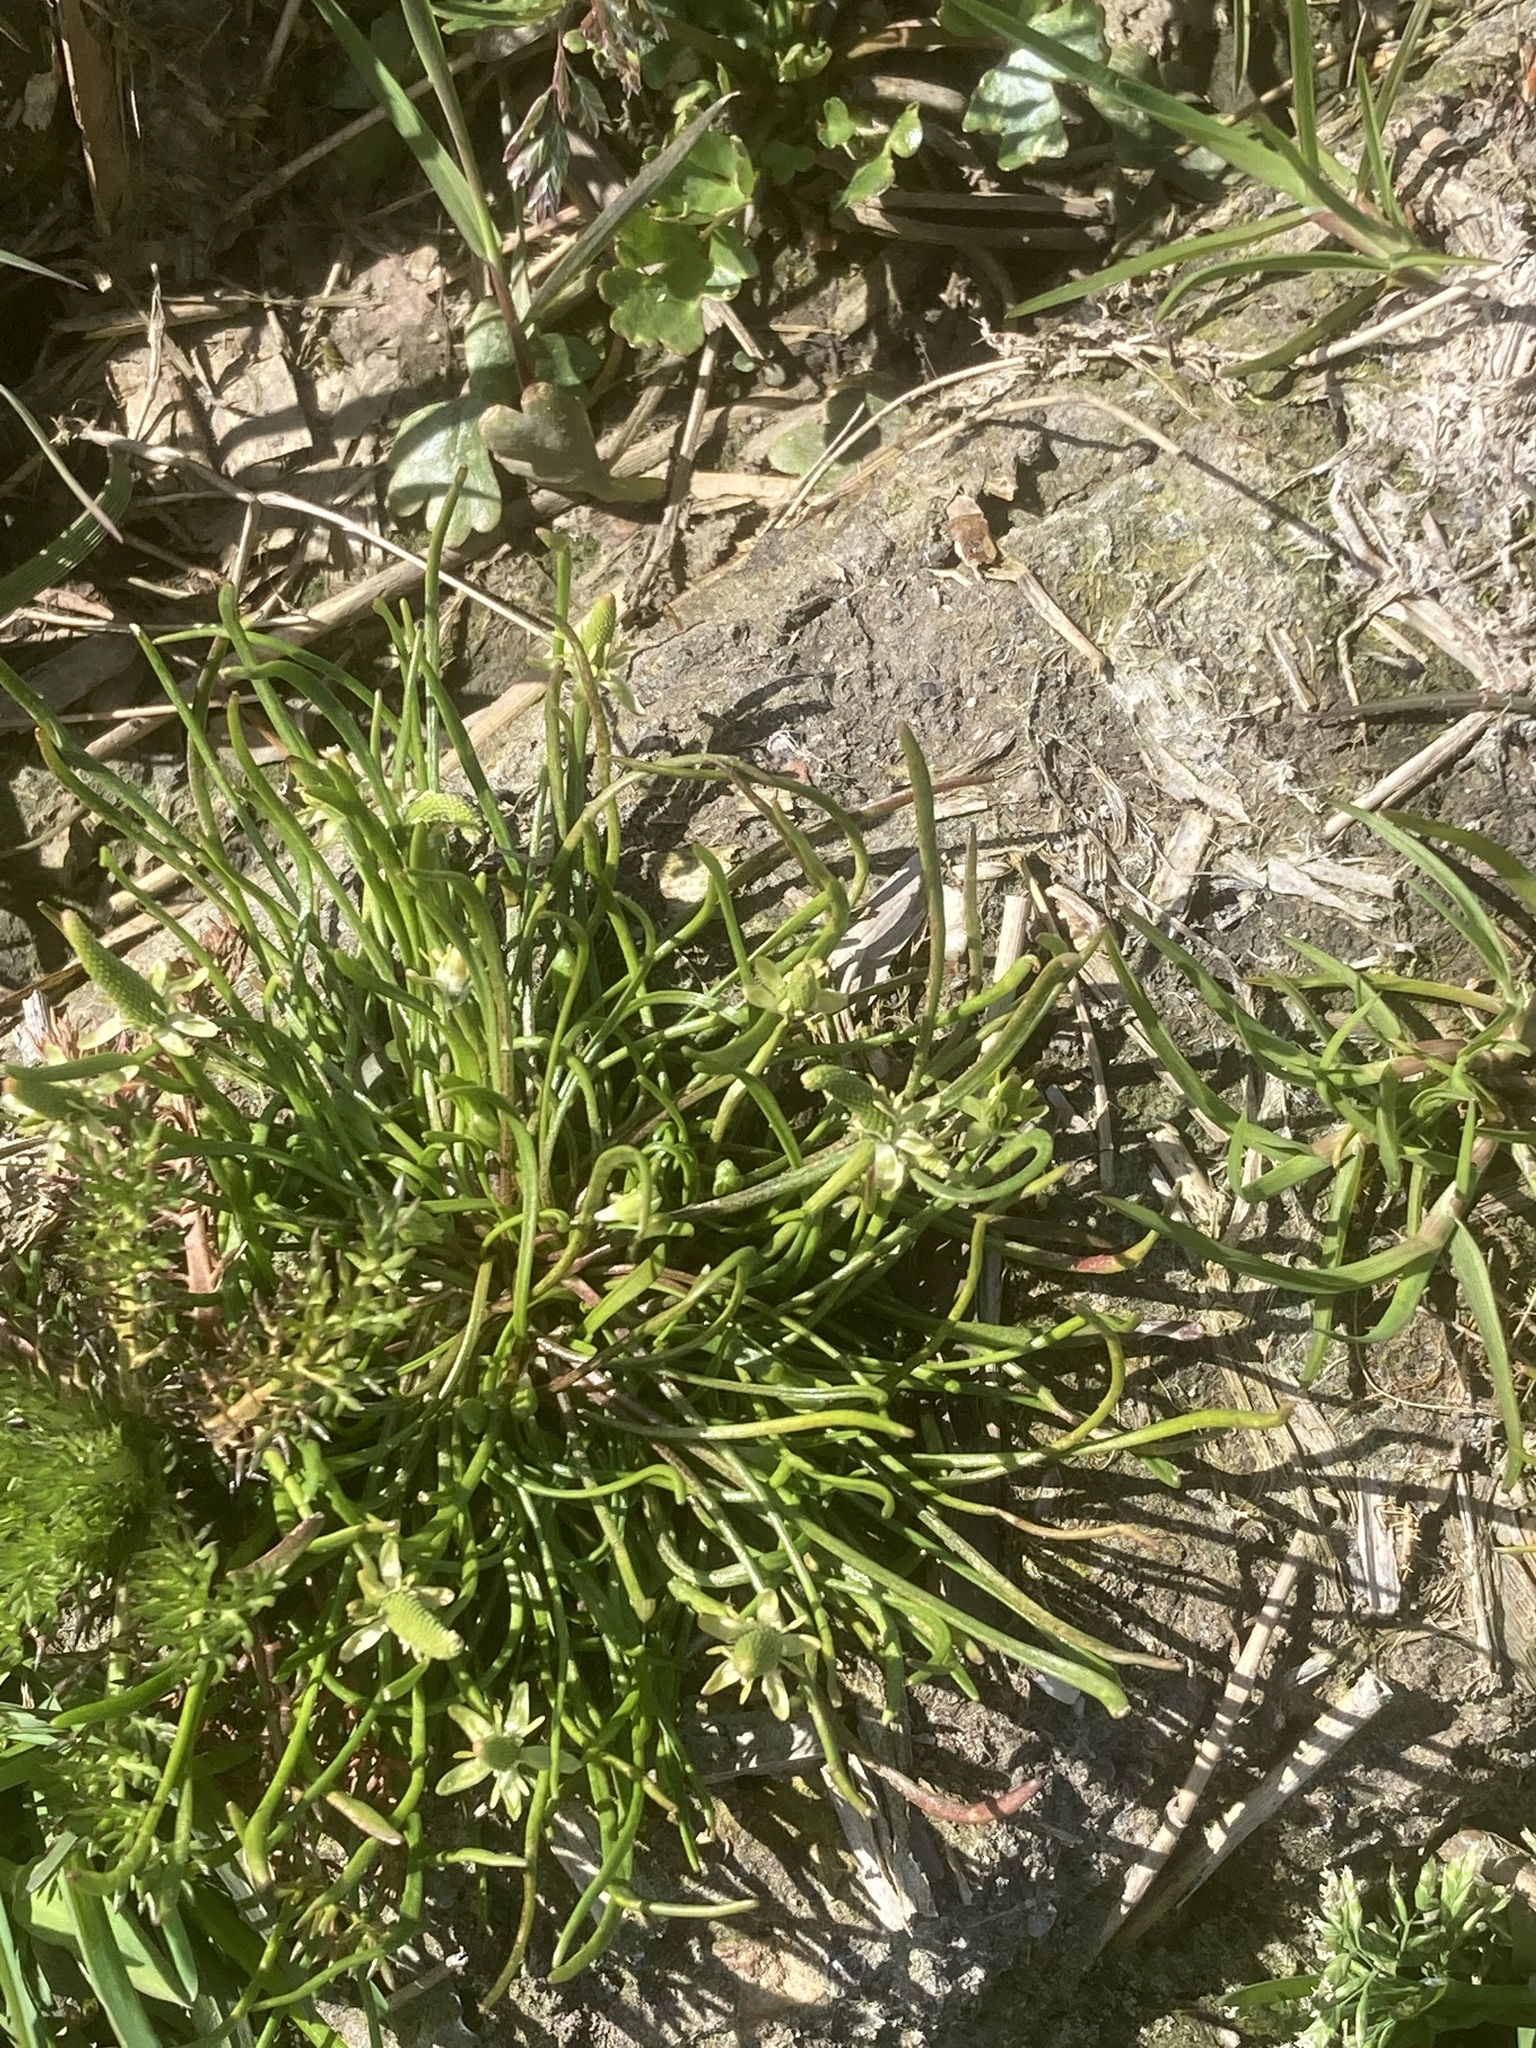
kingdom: Plantae
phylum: Tracheophyta
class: Magnoliopsida
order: Ranunculales
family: Ranunculaceae
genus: Myosurus
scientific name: Myosurus minimus
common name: Mousetail
